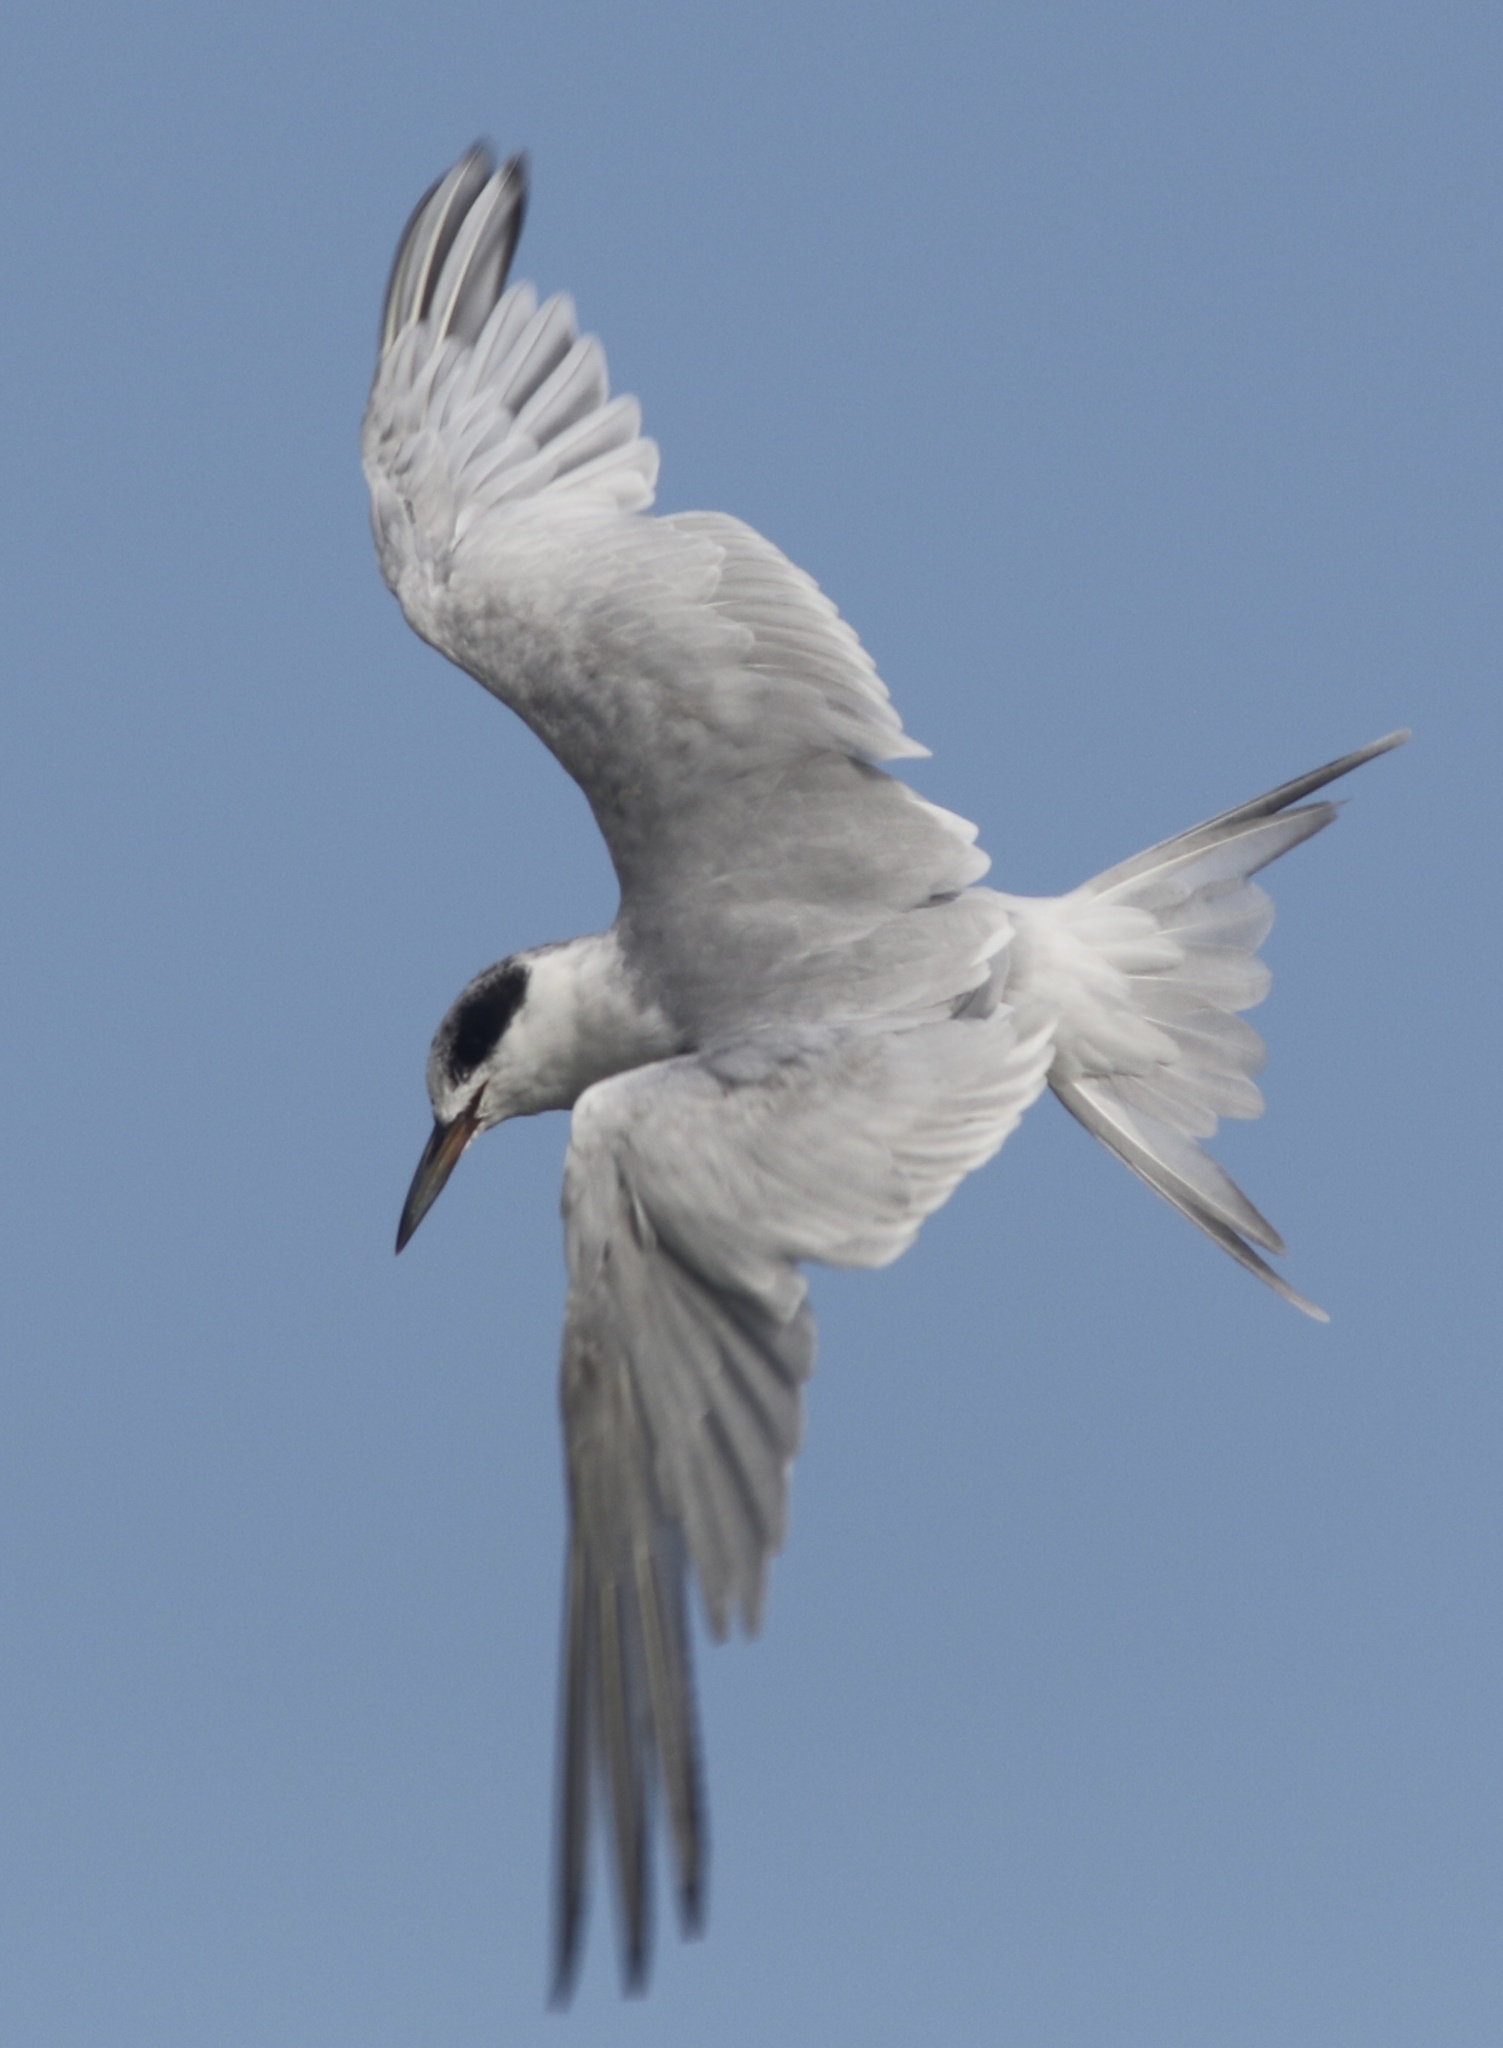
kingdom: Animalia
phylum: Chordata
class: Aves
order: Charadriiformes
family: Laridae
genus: Sterna
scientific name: Sterna forsteri
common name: Forster's tern
